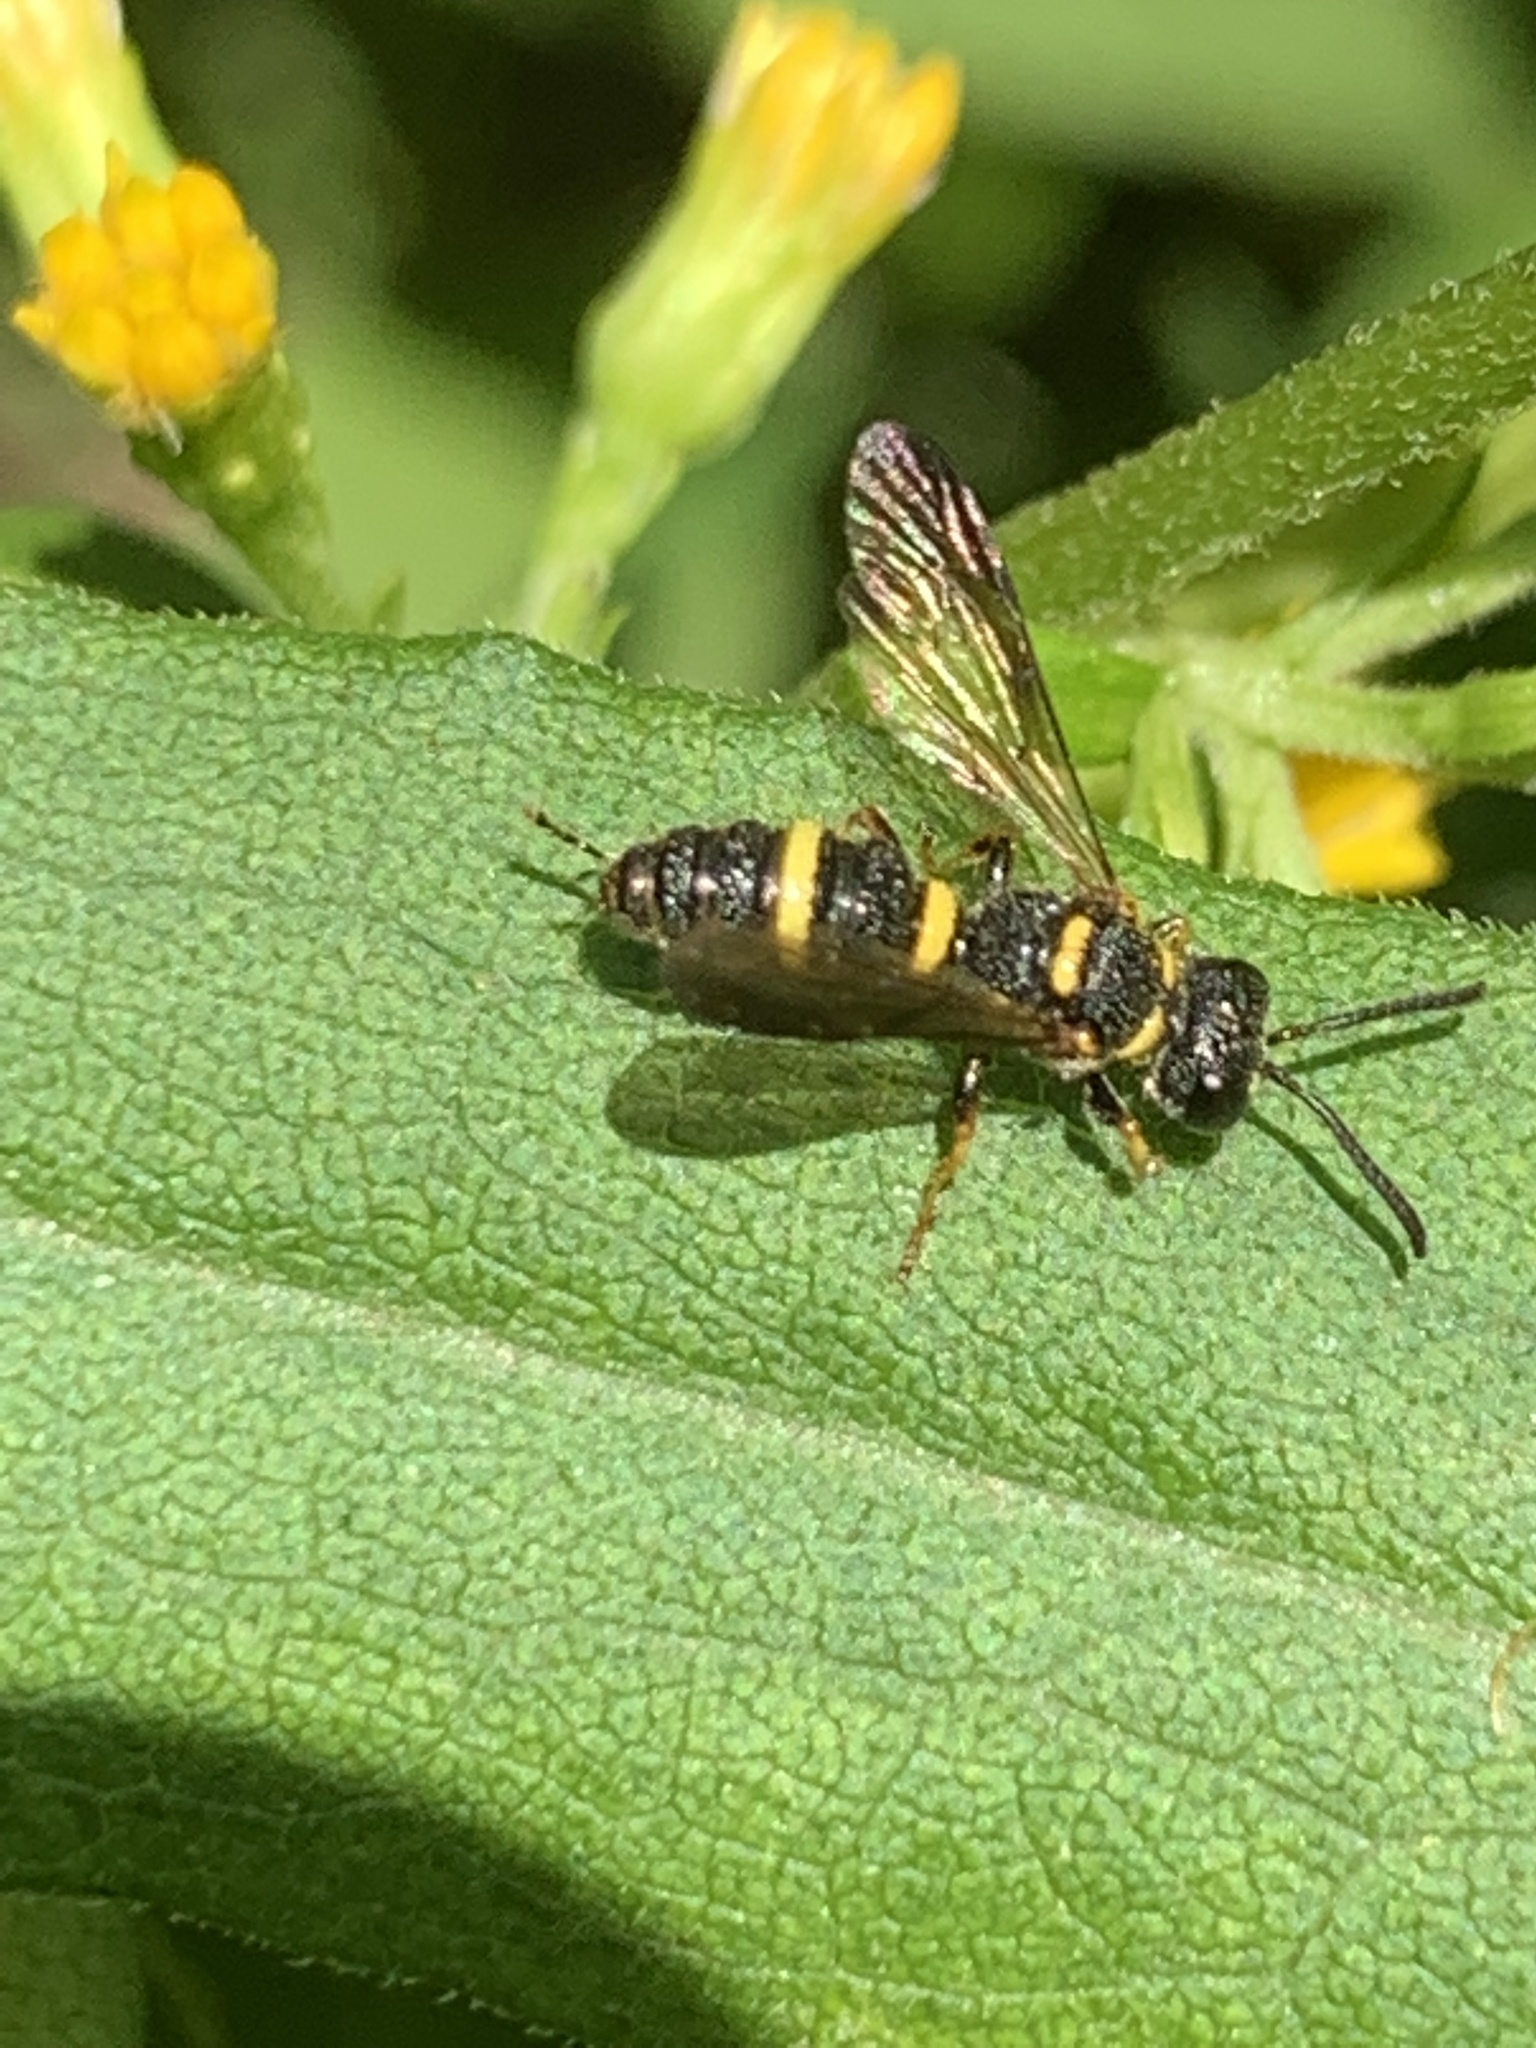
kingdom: Animalia
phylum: Arthropoda
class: Insecta
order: Hymenoptera
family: Crabronidae
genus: Cerceris
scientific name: Cerceris insolita
